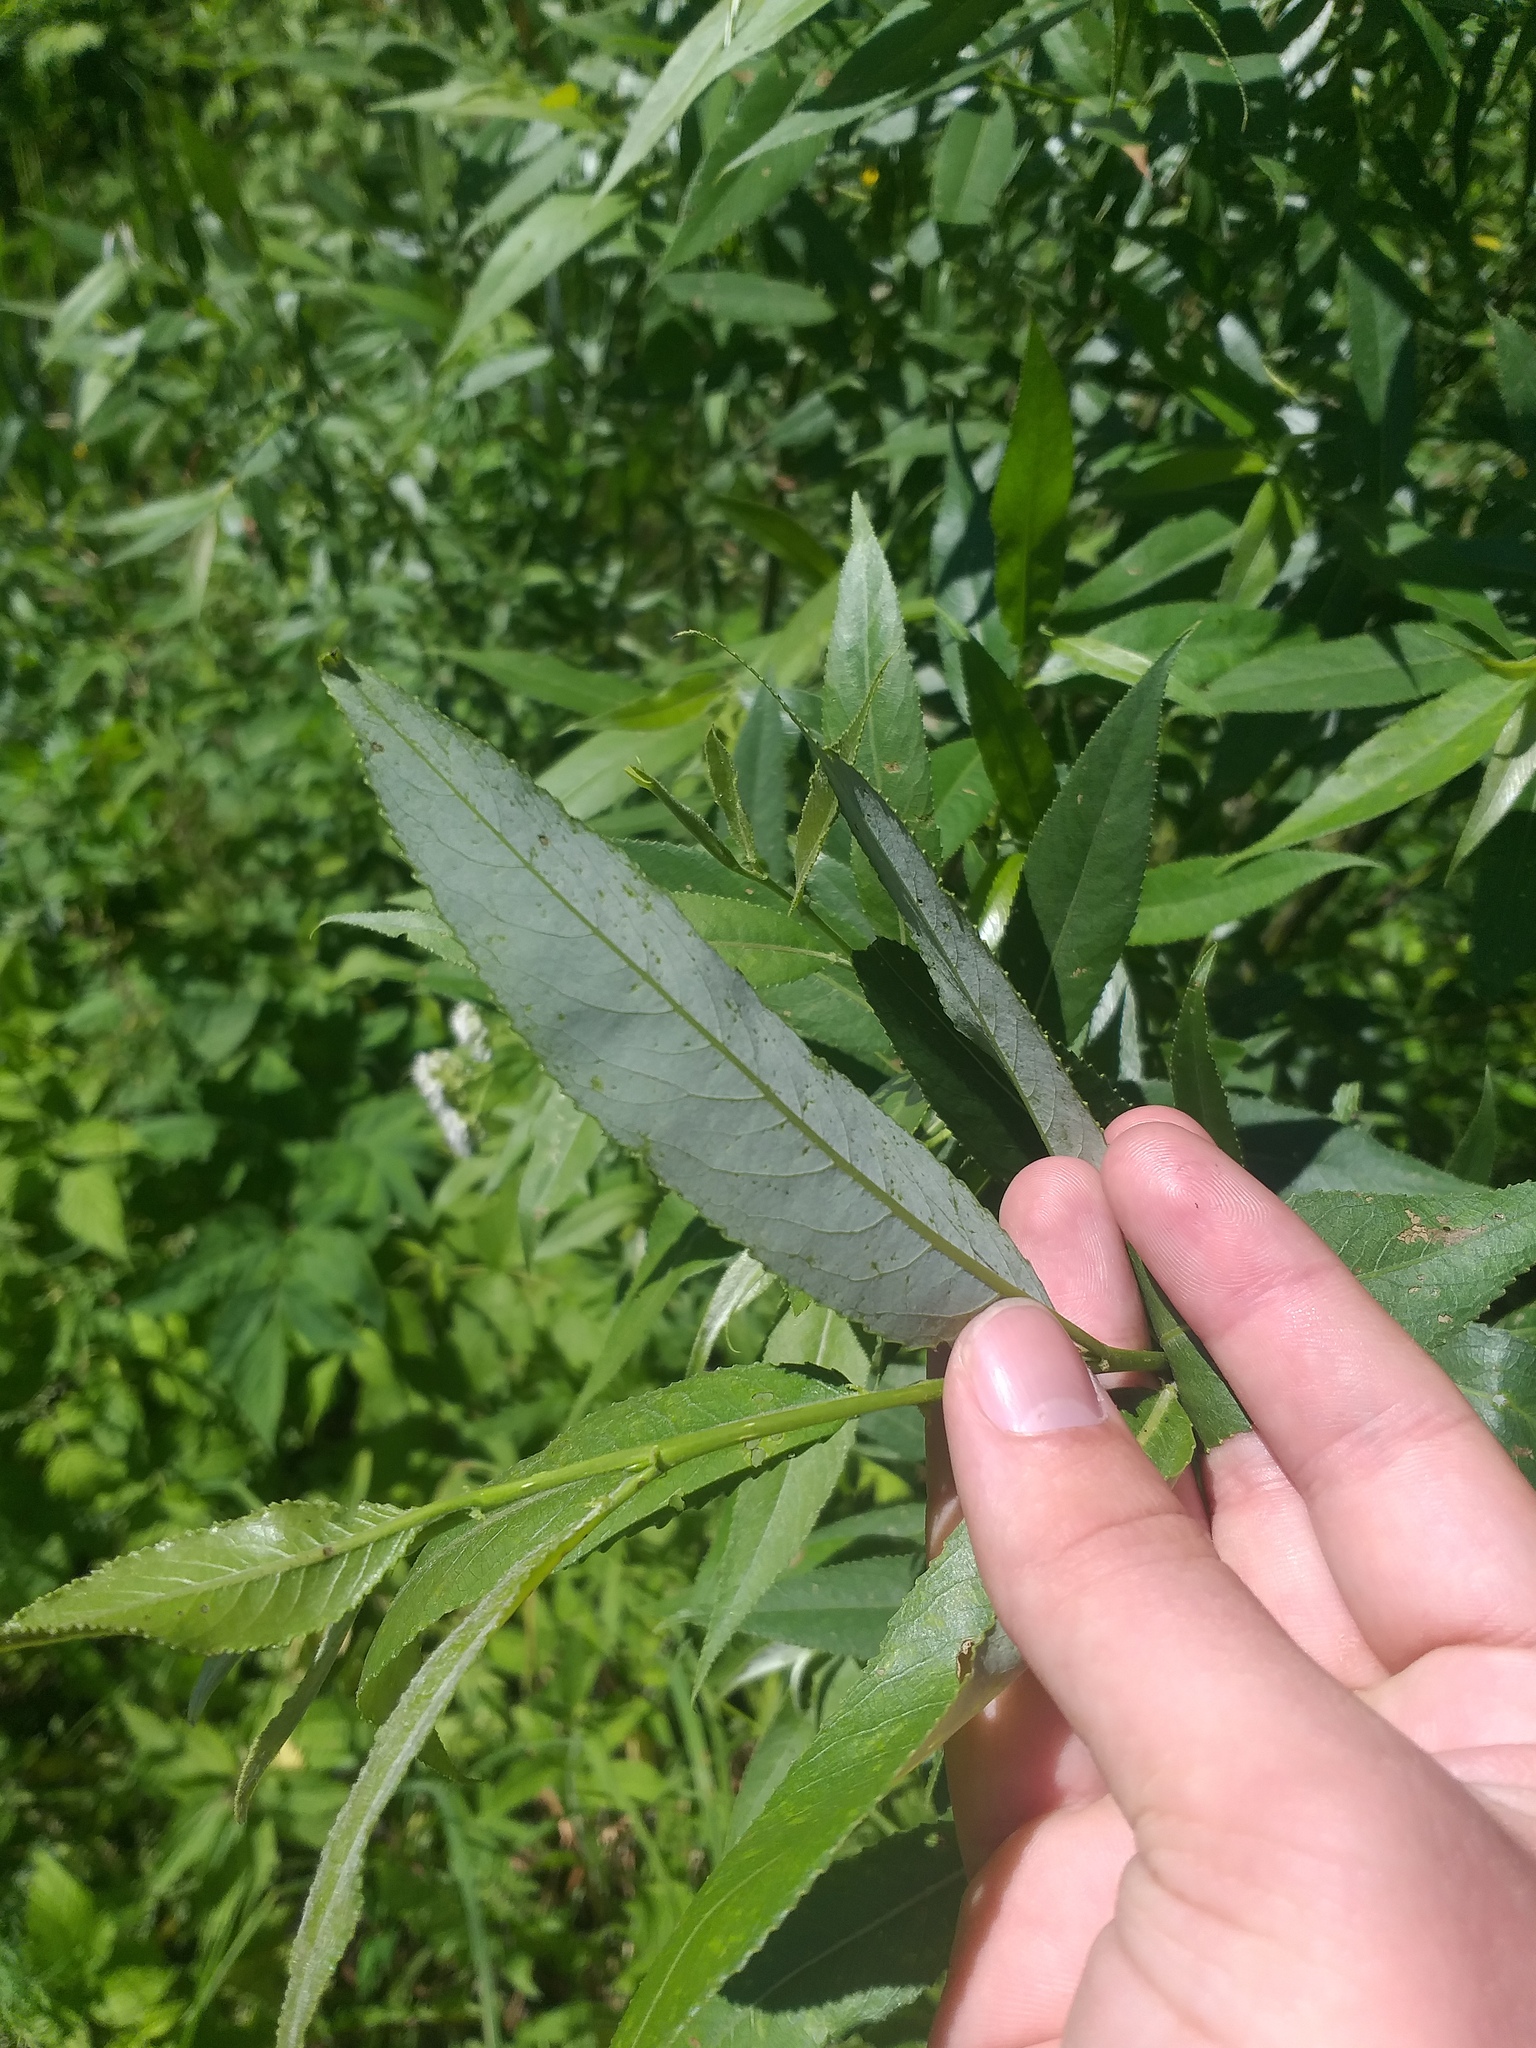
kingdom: Plantae
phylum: Tracheophyta
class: Magnoliopsida
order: Malpighiales
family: Salicaceae
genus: Salix
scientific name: Salix fragilis
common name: Crack willow
